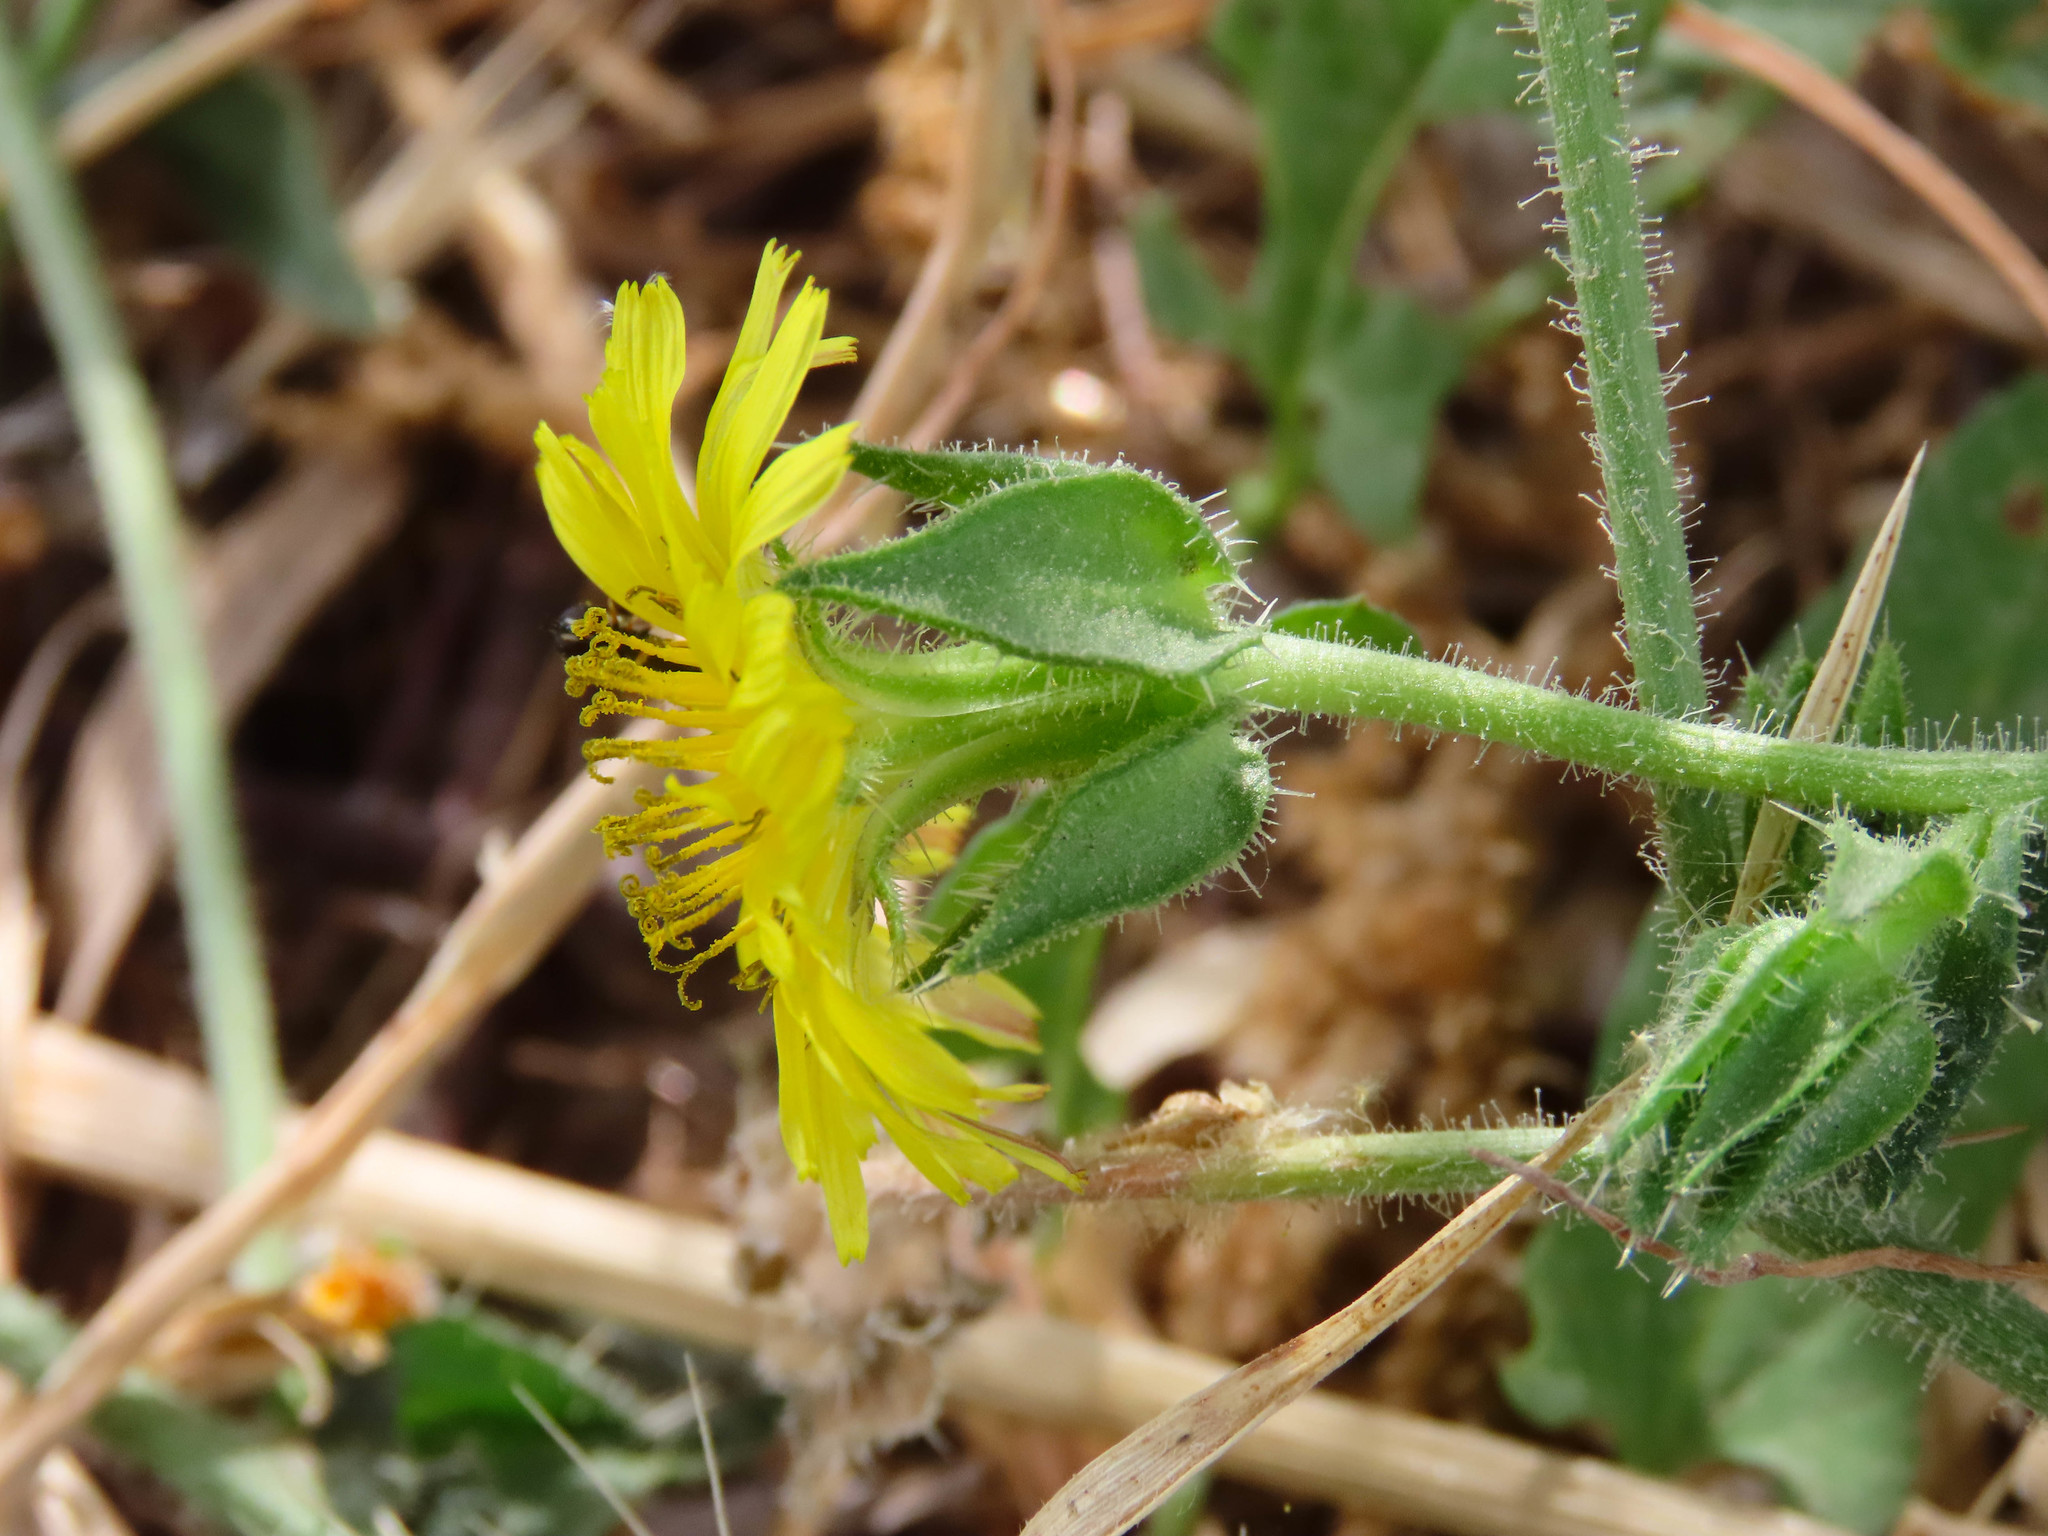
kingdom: Plantae
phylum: Tracheophyta
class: Magnoliopsida
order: Asterales
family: Asteraceae
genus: Helminthotheca
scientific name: Helminthotheca echioides
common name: Ox-tongue
